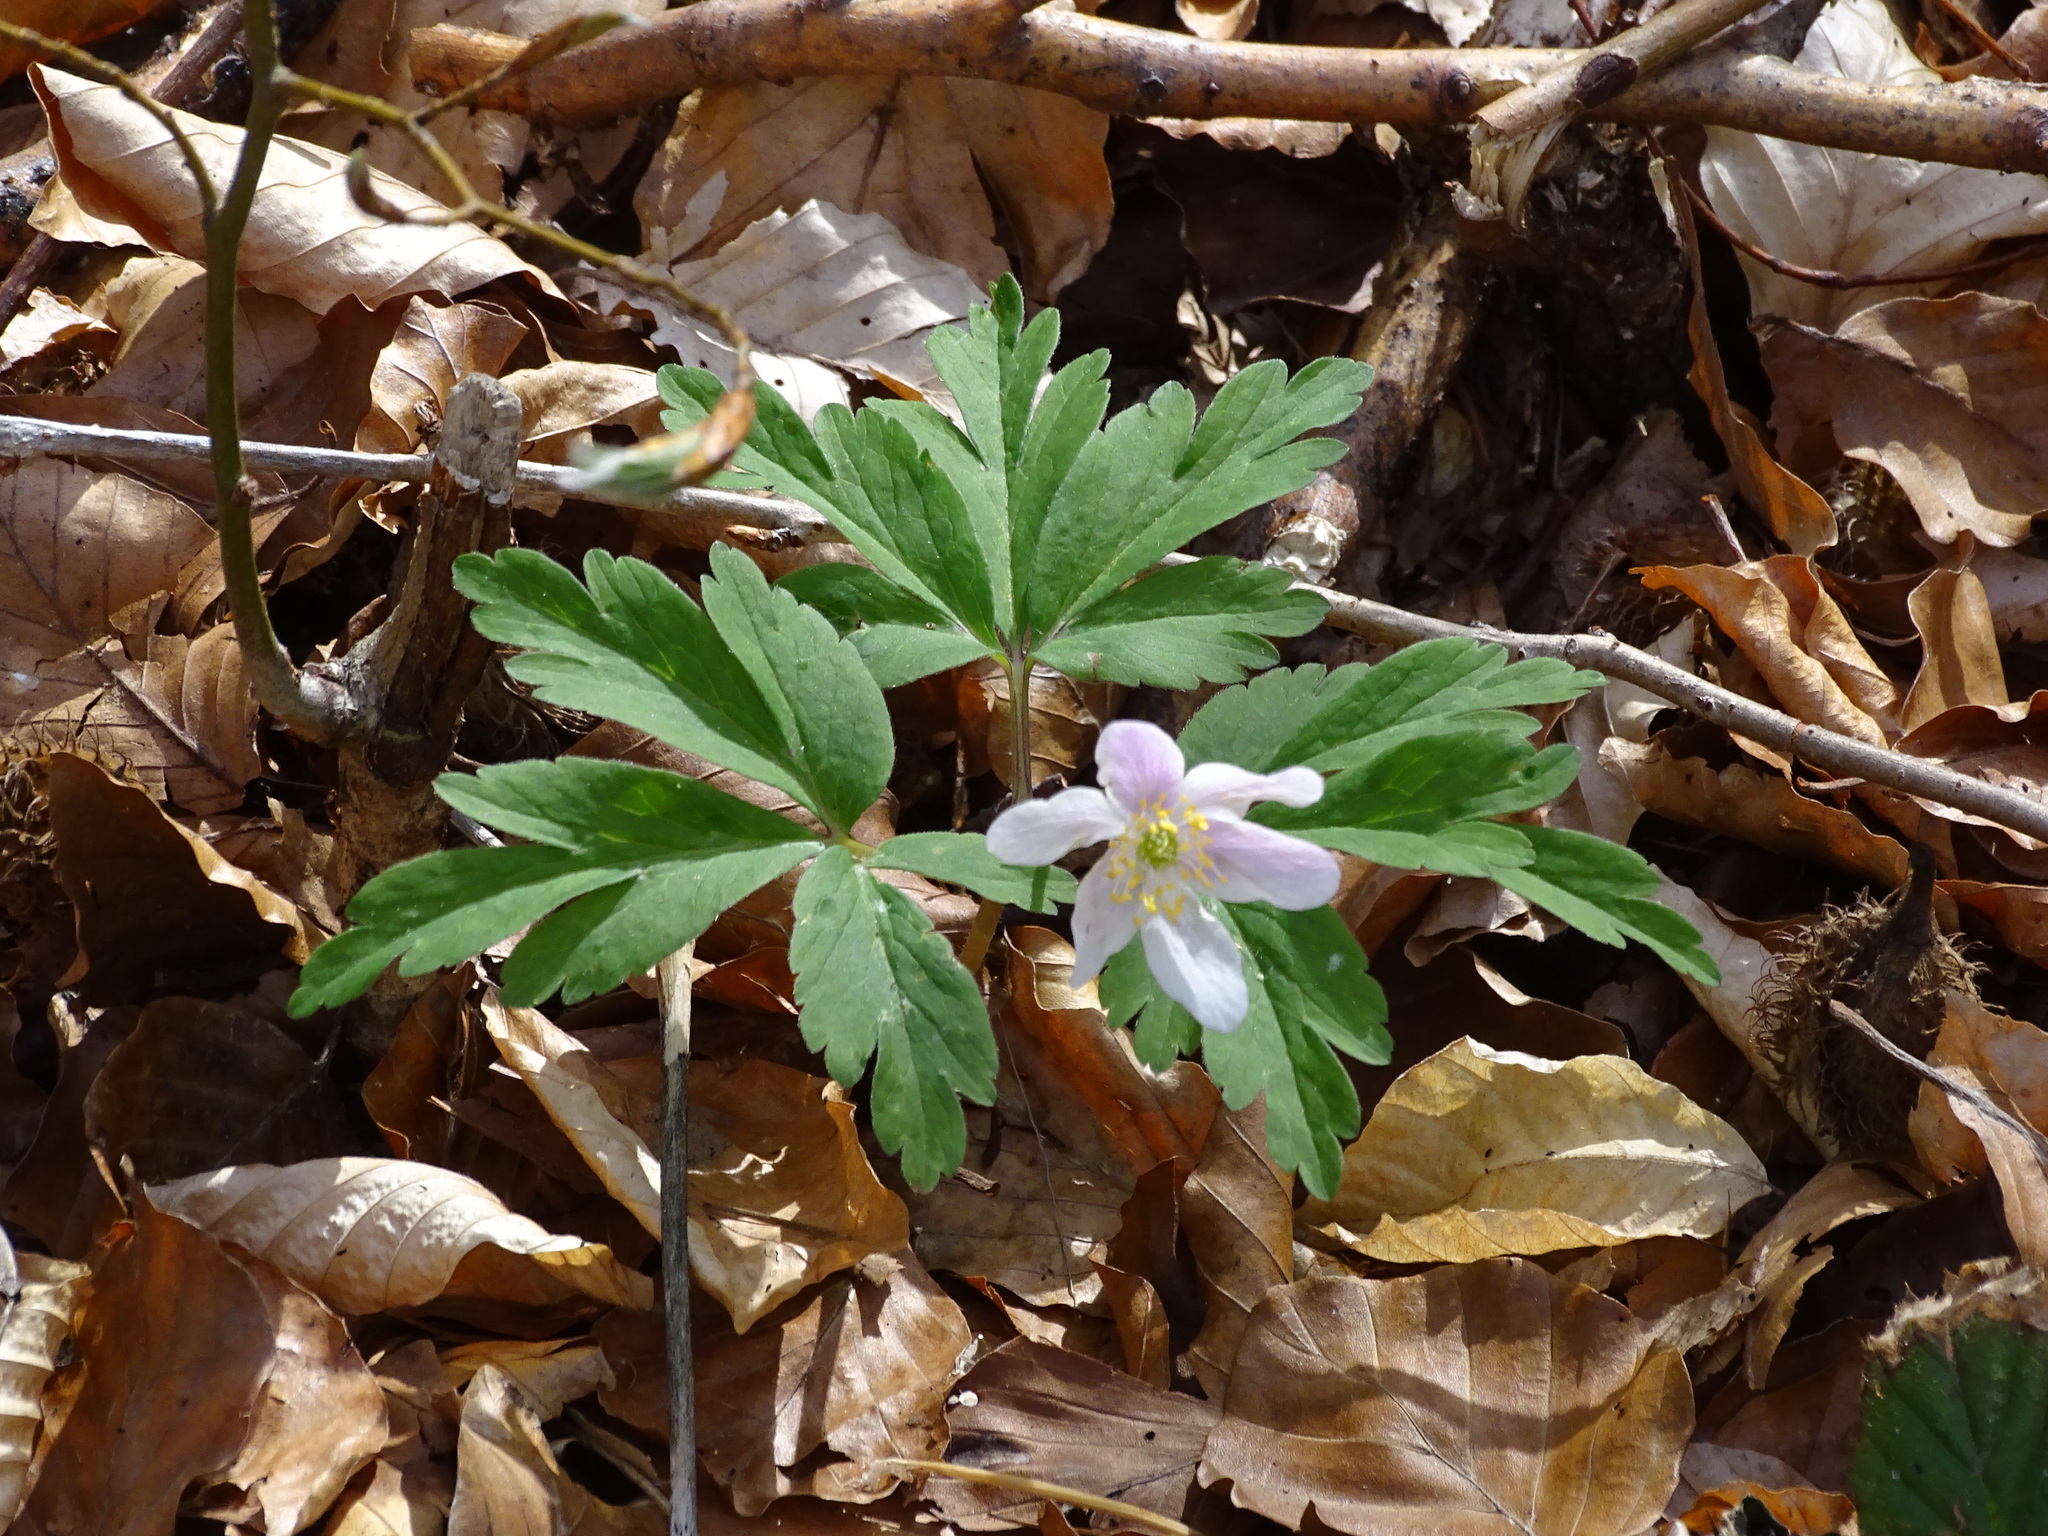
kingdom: Plantae
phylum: Tracheophyta
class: Magnoliopsida
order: Ranunculales
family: Ranunculaceae
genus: Anemone
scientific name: Anemone nemorosa
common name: Wood anemone
